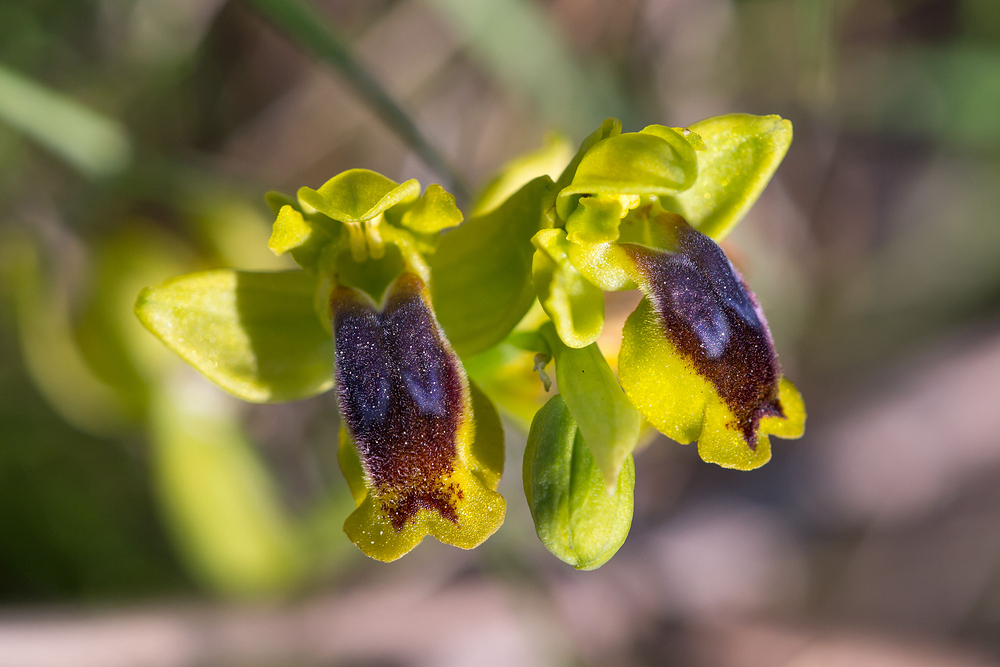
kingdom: Plantae
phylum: Tracheophyta
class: Liliopsida
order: Asparagales
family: Orchidaceae
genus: Ophrys
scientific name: Ophrys lutea
